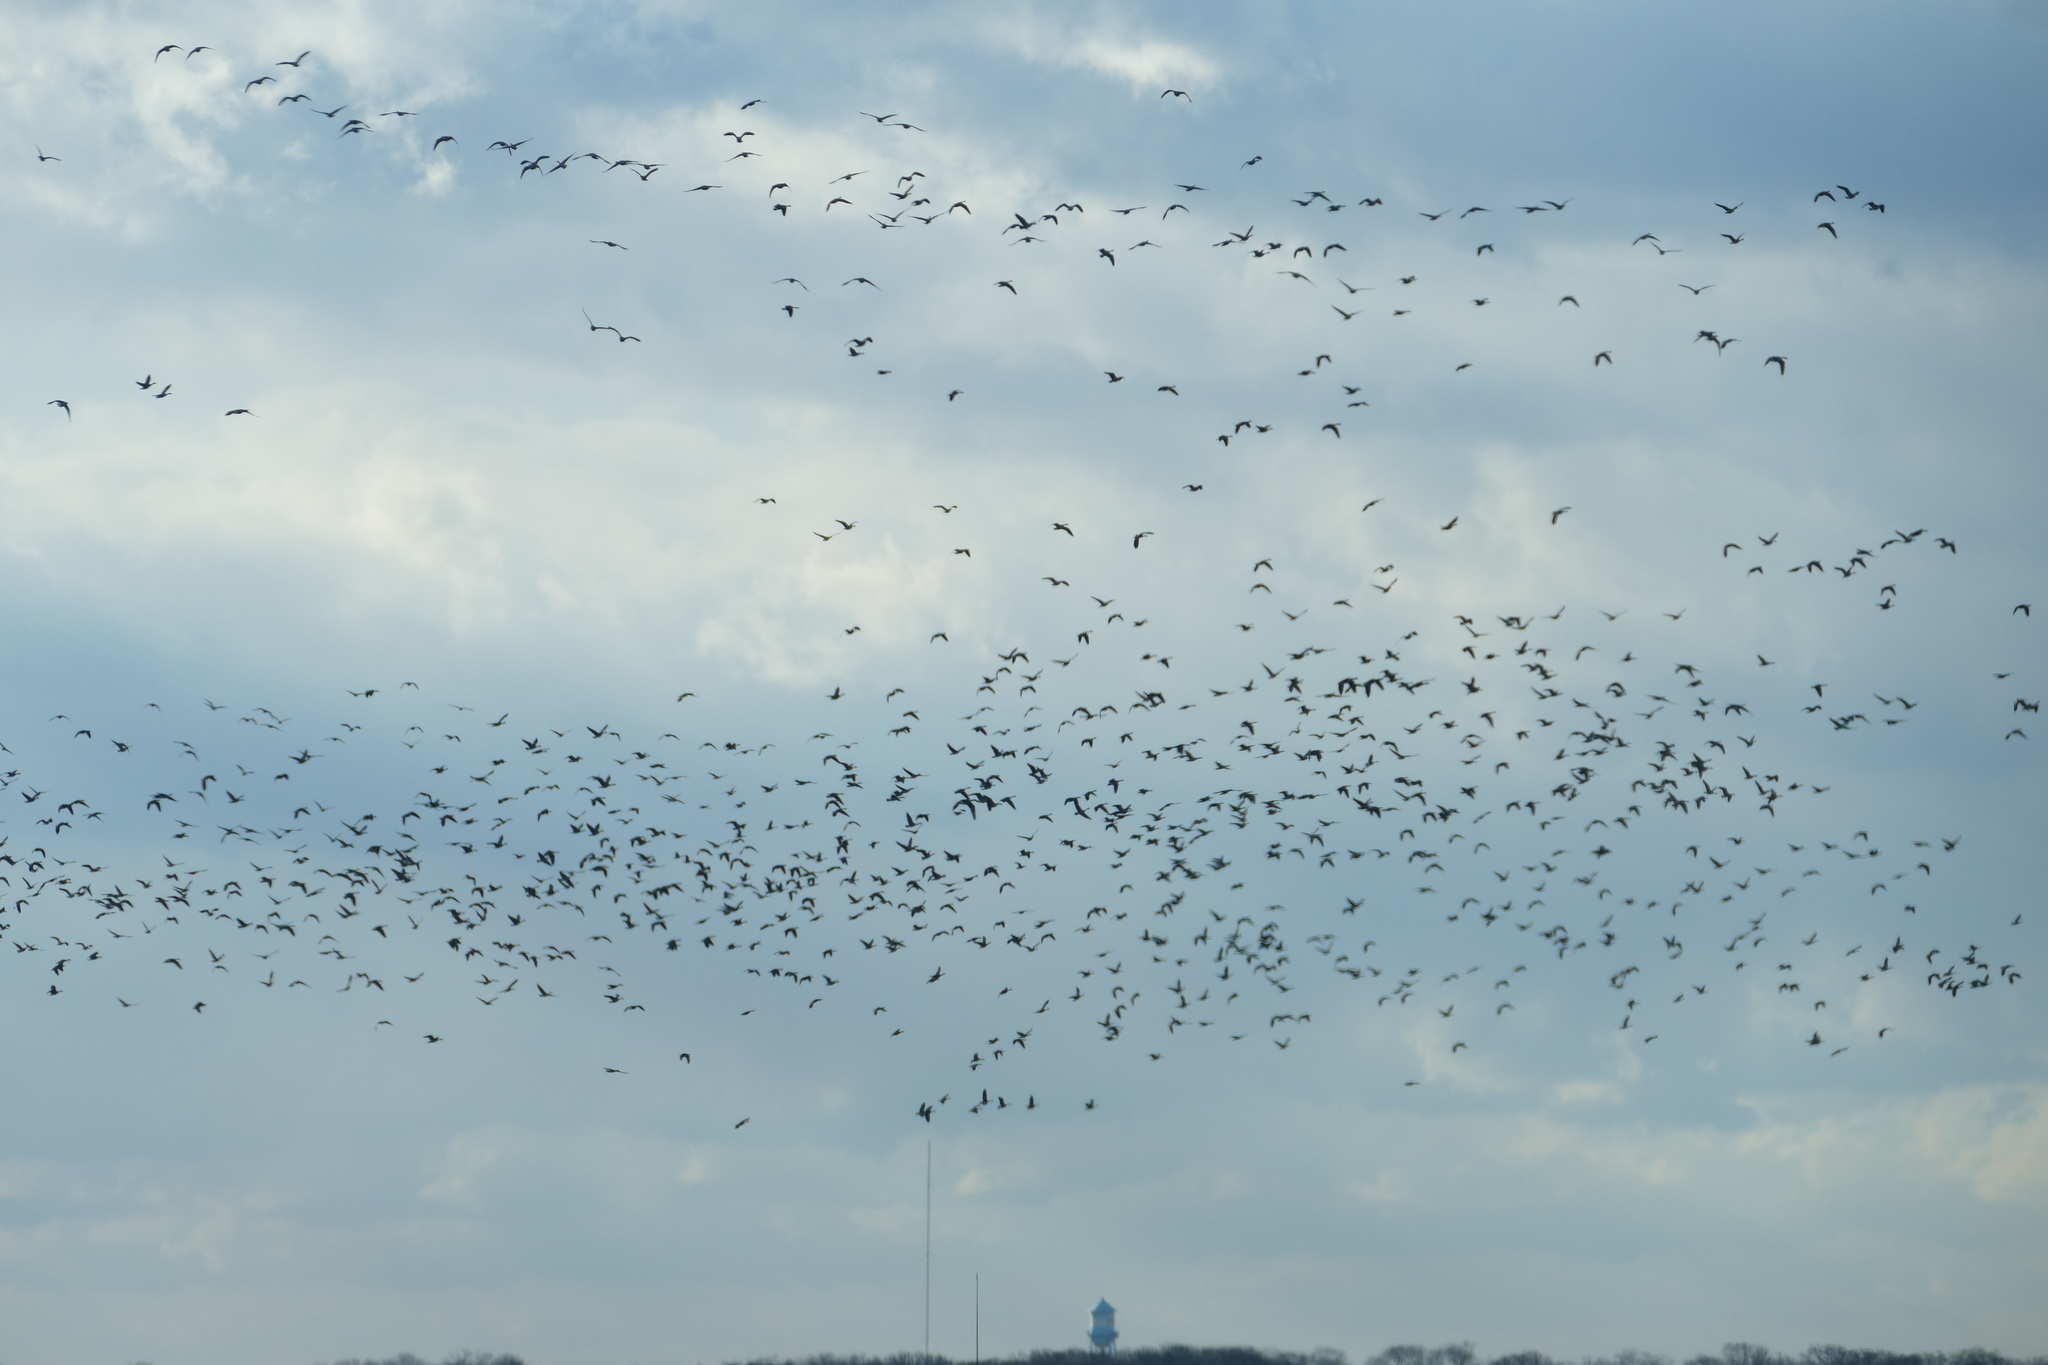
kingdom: Animalia
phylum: Chordata
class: Aves
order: Anseriformes
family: Anatidae
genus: Branta
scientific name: Branta canadensis
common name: Canada goose
